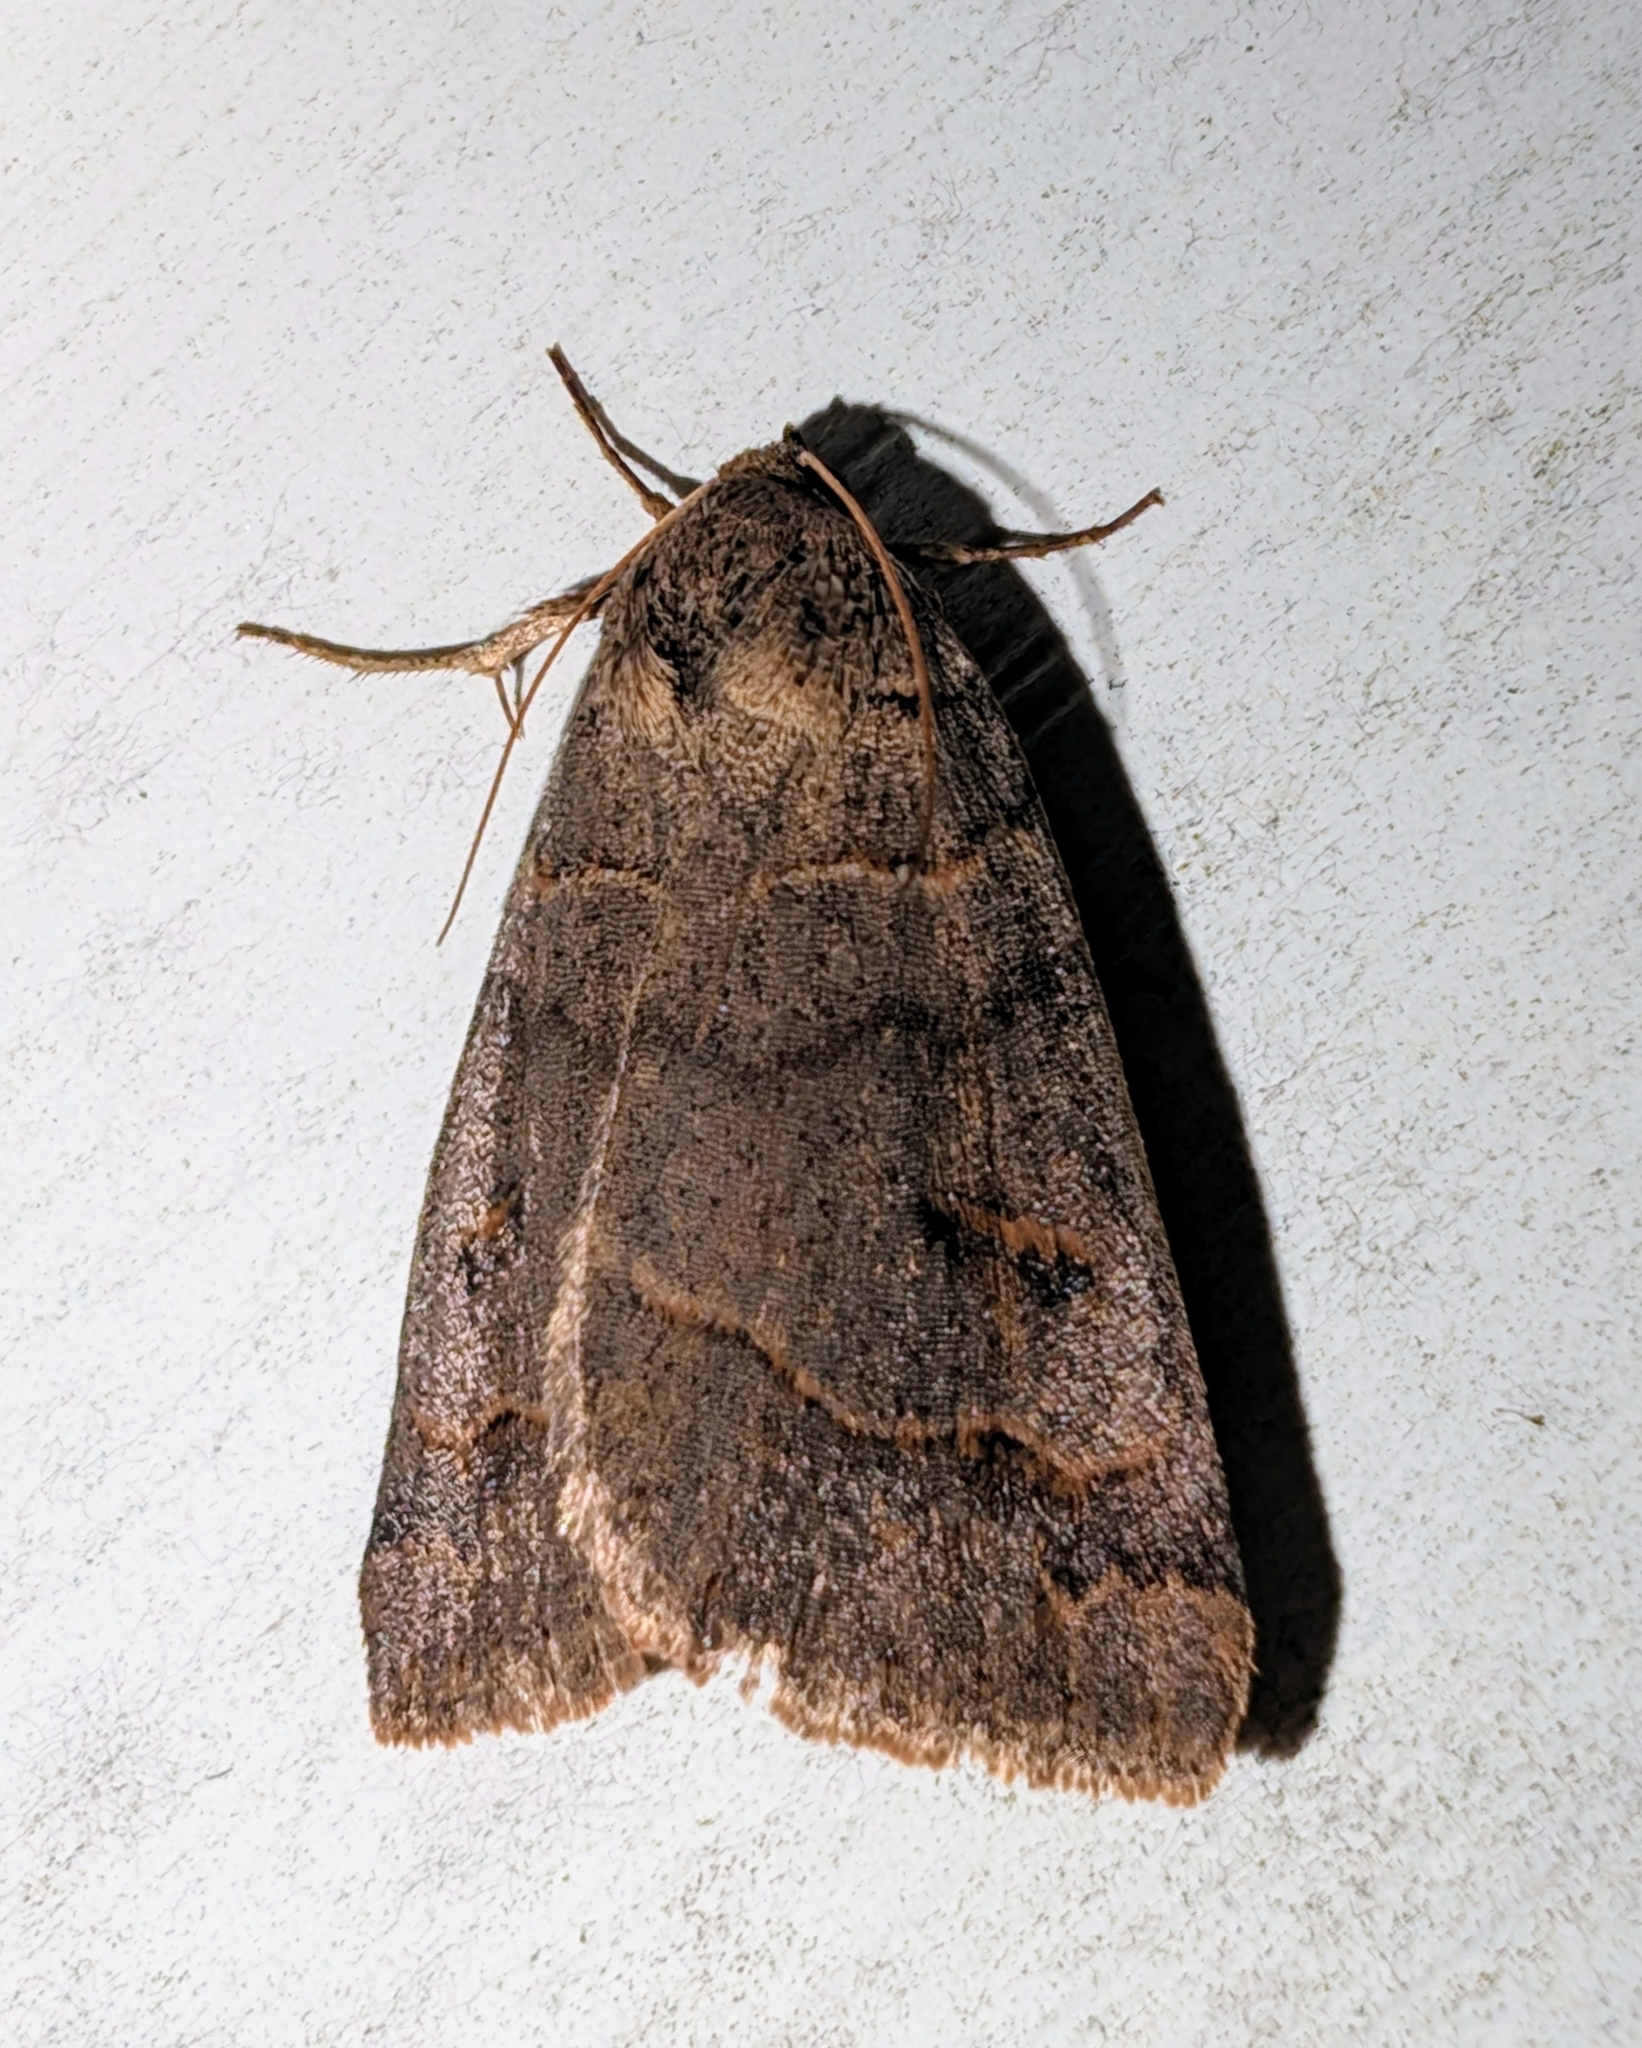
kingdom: Animalia
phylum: Arthropoda
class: Insecta
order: Lepidoptera
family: Erebidae
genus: Phoberia
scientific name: Phoberia atomaris
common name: Common oak moth
